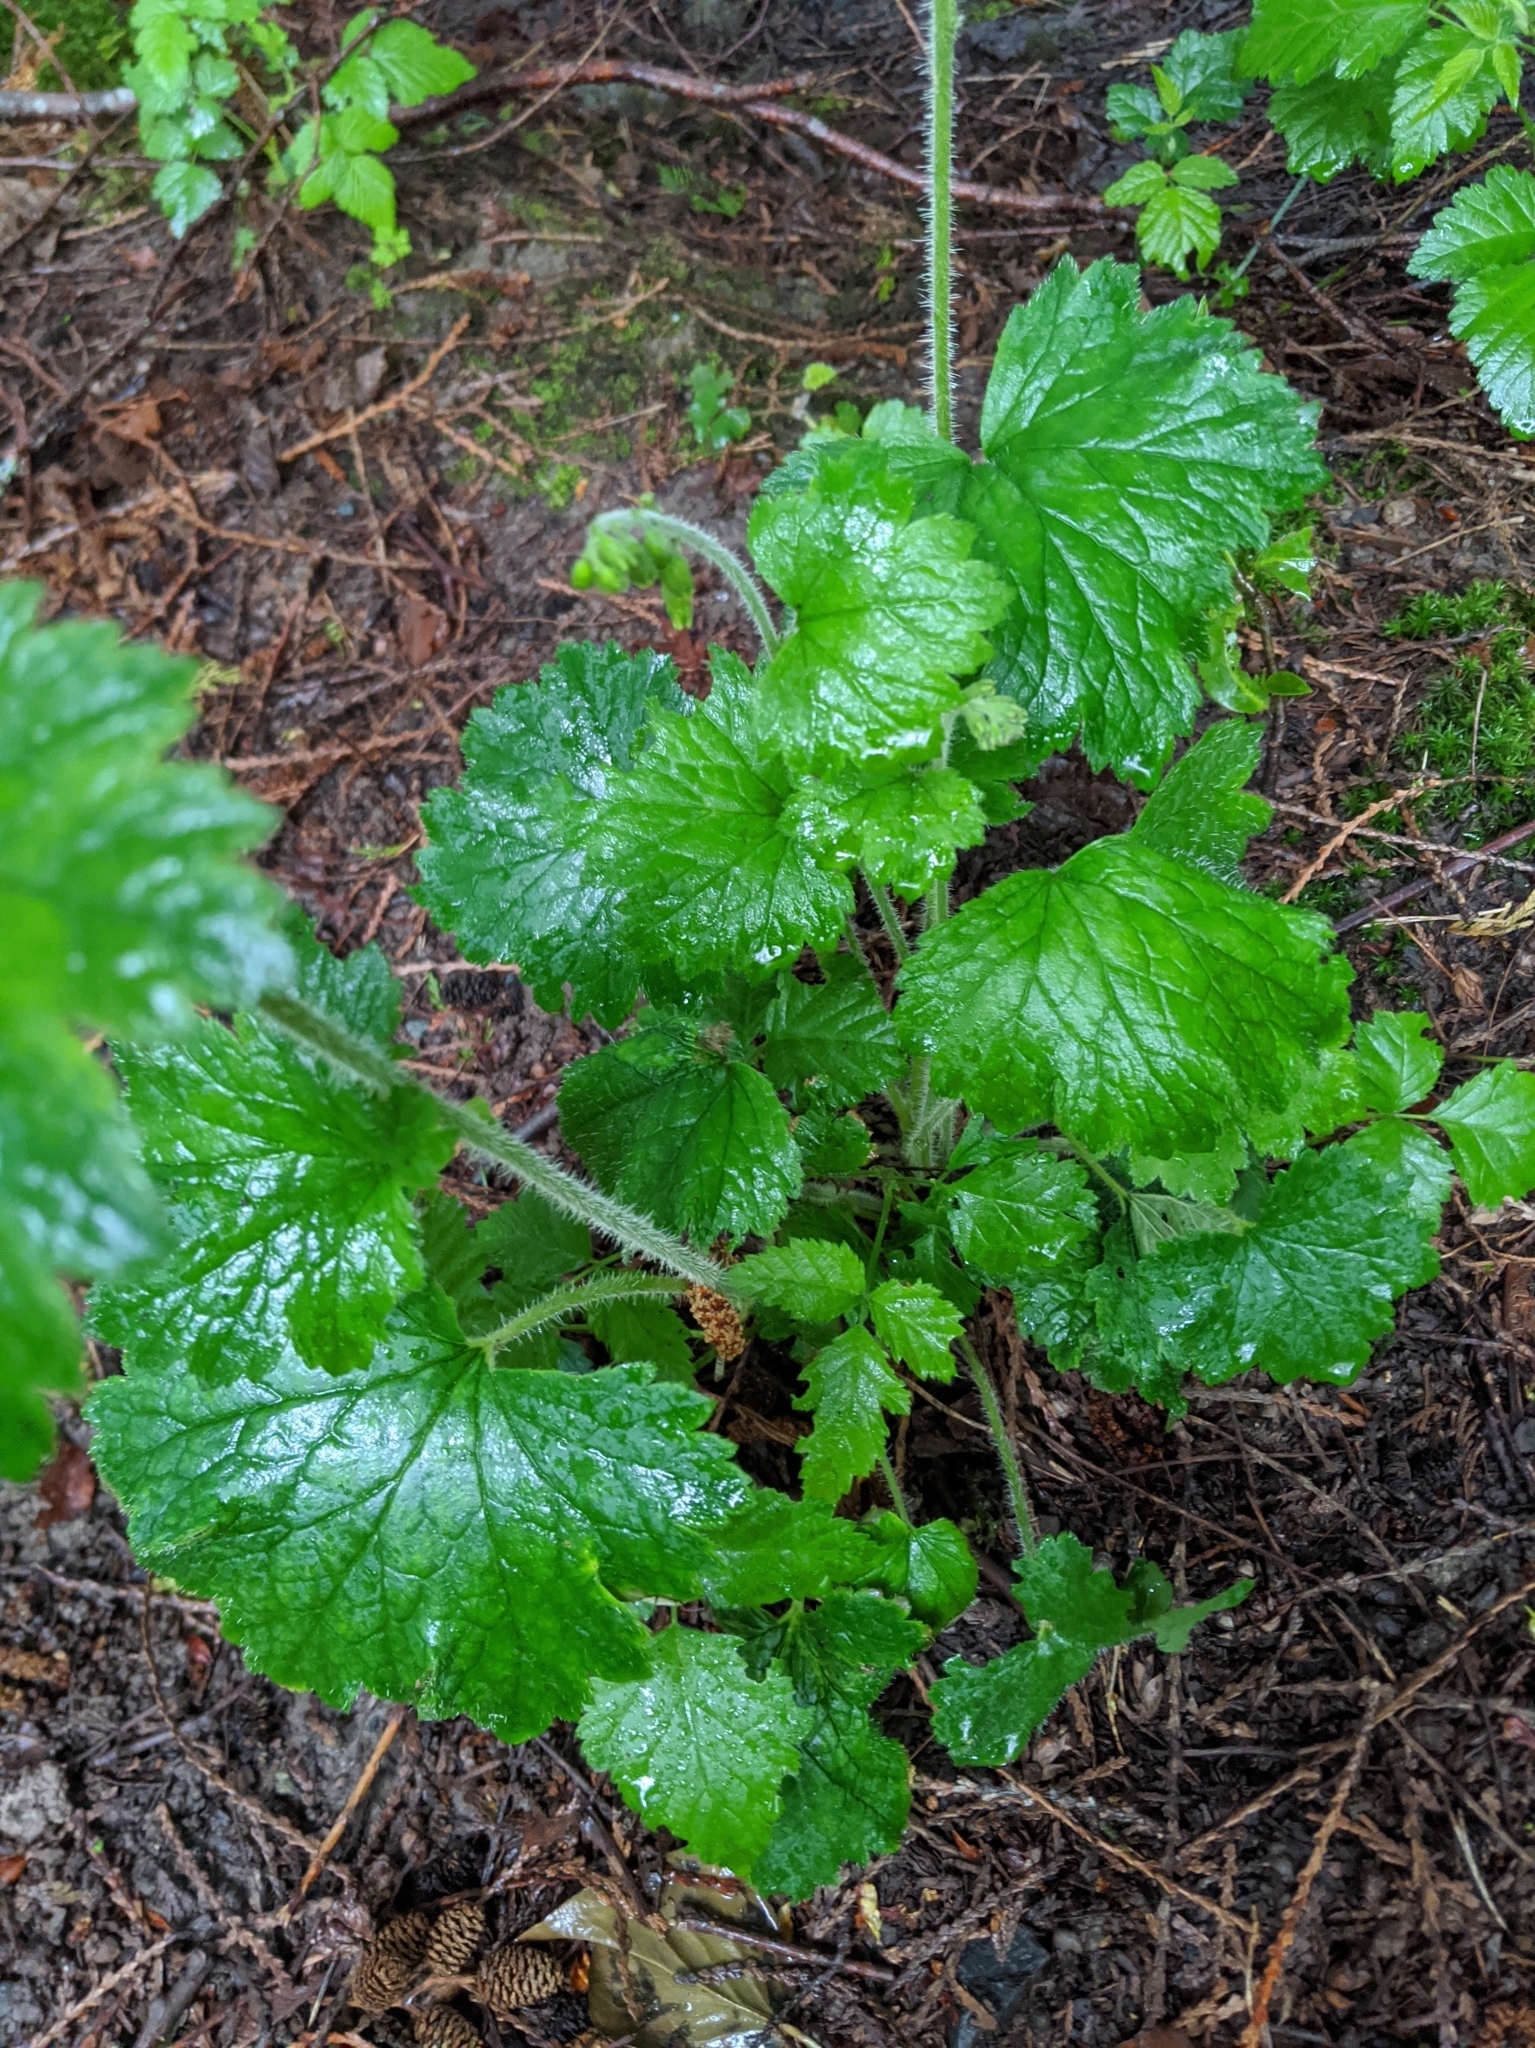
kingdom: Plantae
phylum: Tracheophyta
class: Magnoliopsida
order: Saxifragales
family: Saxifragaceae
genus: Tellima
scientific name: Tellima grandiflora
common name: Fringecups
